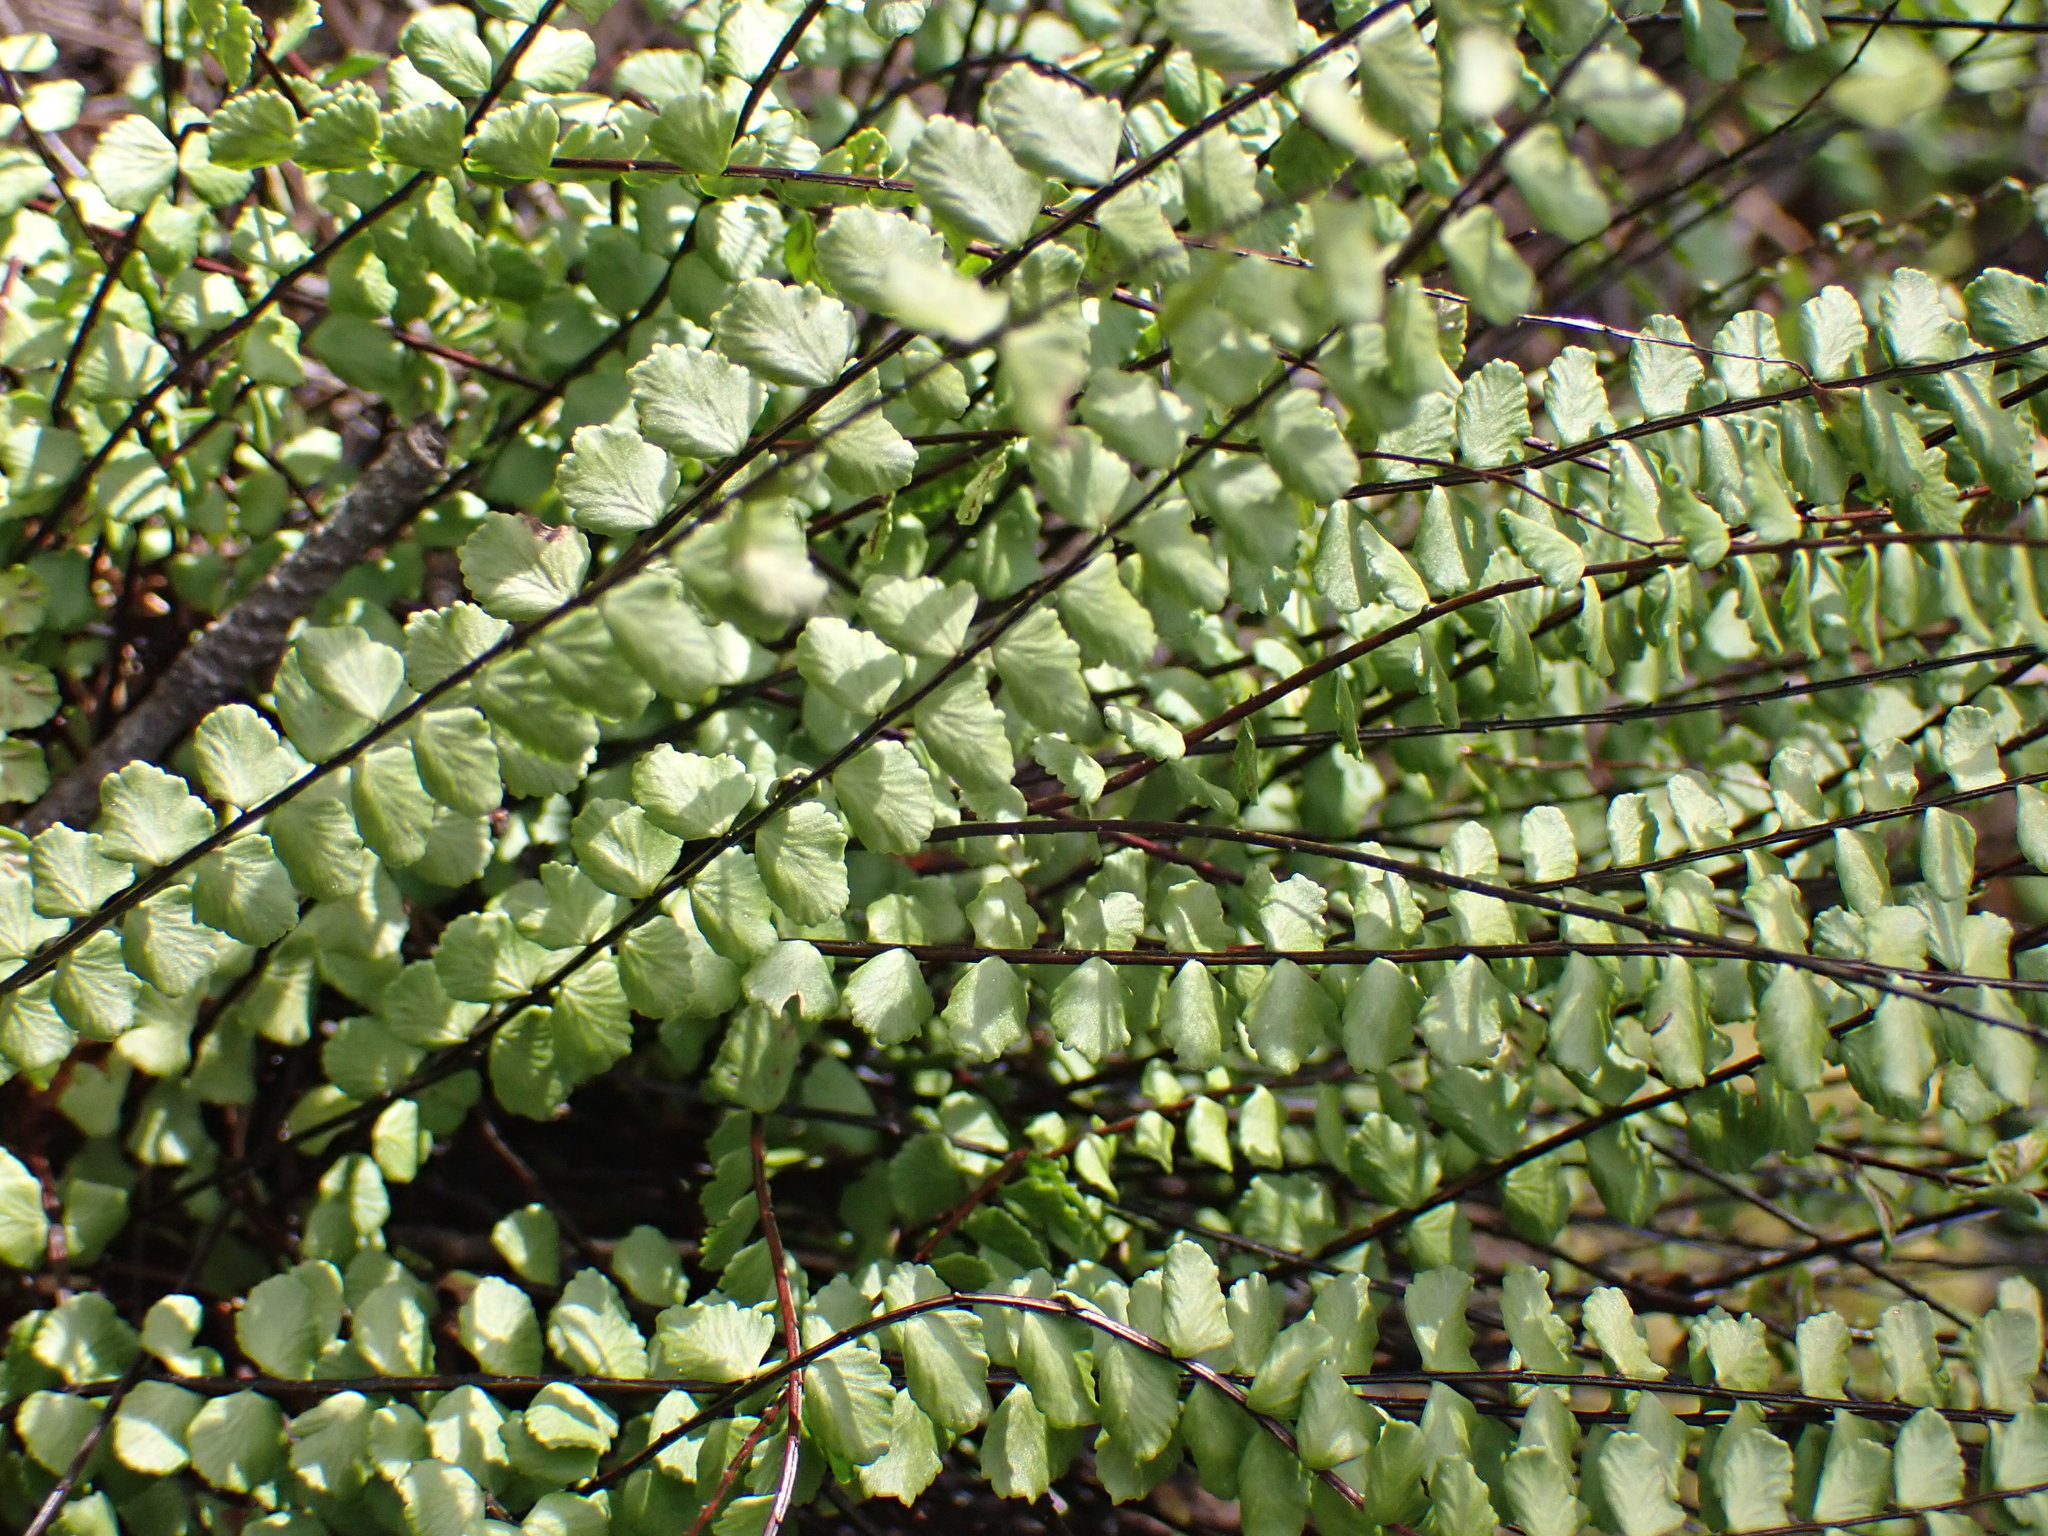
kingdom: Plantae
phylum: Tracheophyta
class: Polypodiopsida
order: Polypodiales
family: Aspleniaceae
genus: Asplenium
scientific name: Asplenium trichomanes
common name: Maidenhair spleenwort
